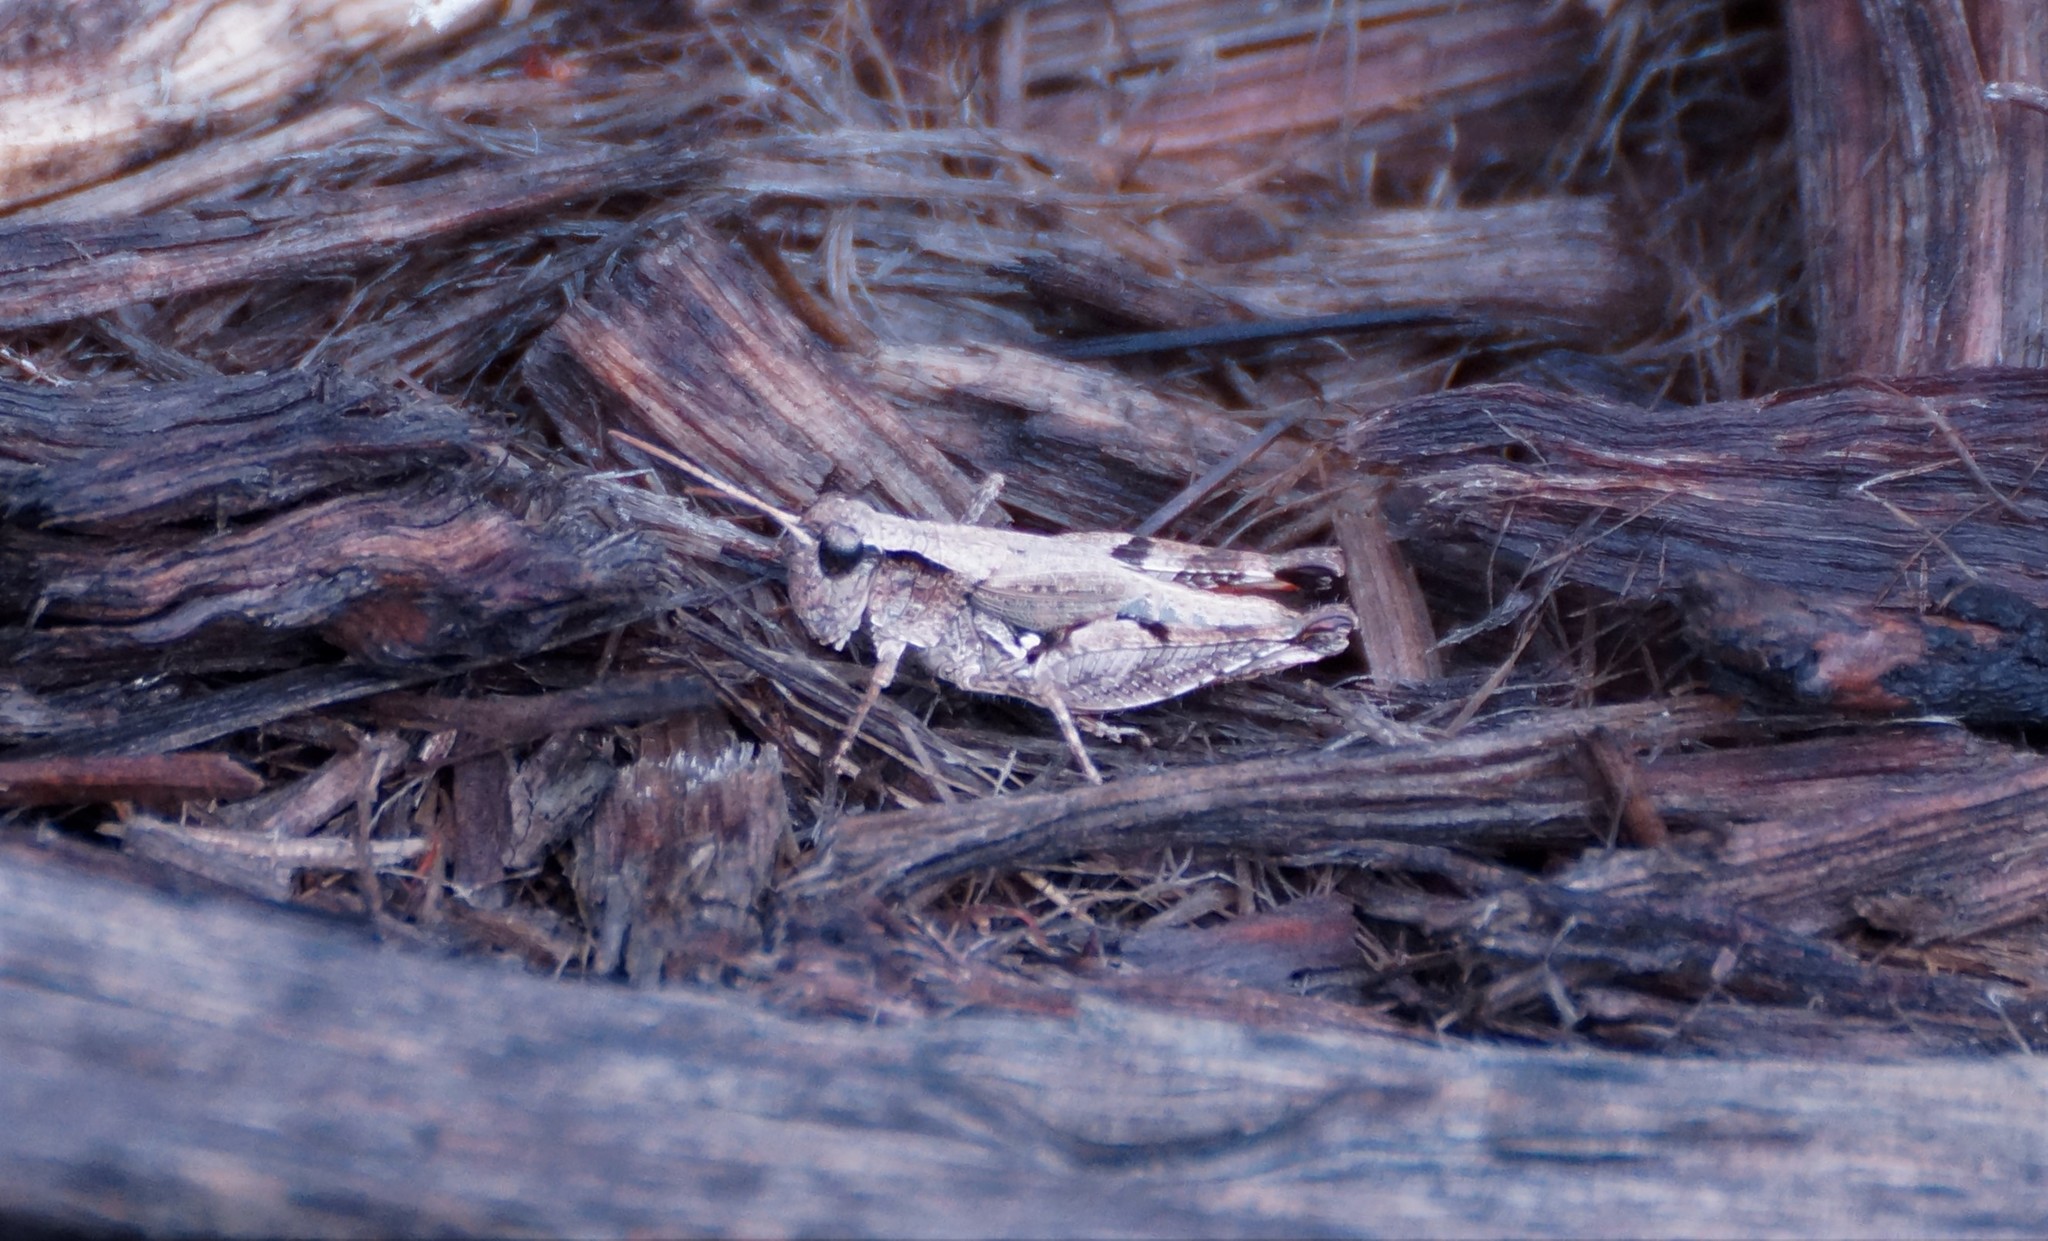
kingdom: Animalia
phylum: Arthropoda
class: Insecta
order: Orthoptera
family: Acrididae
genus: Phaulacridium
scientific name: Phaulacridium vittatum
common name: Wingless grasshopper
